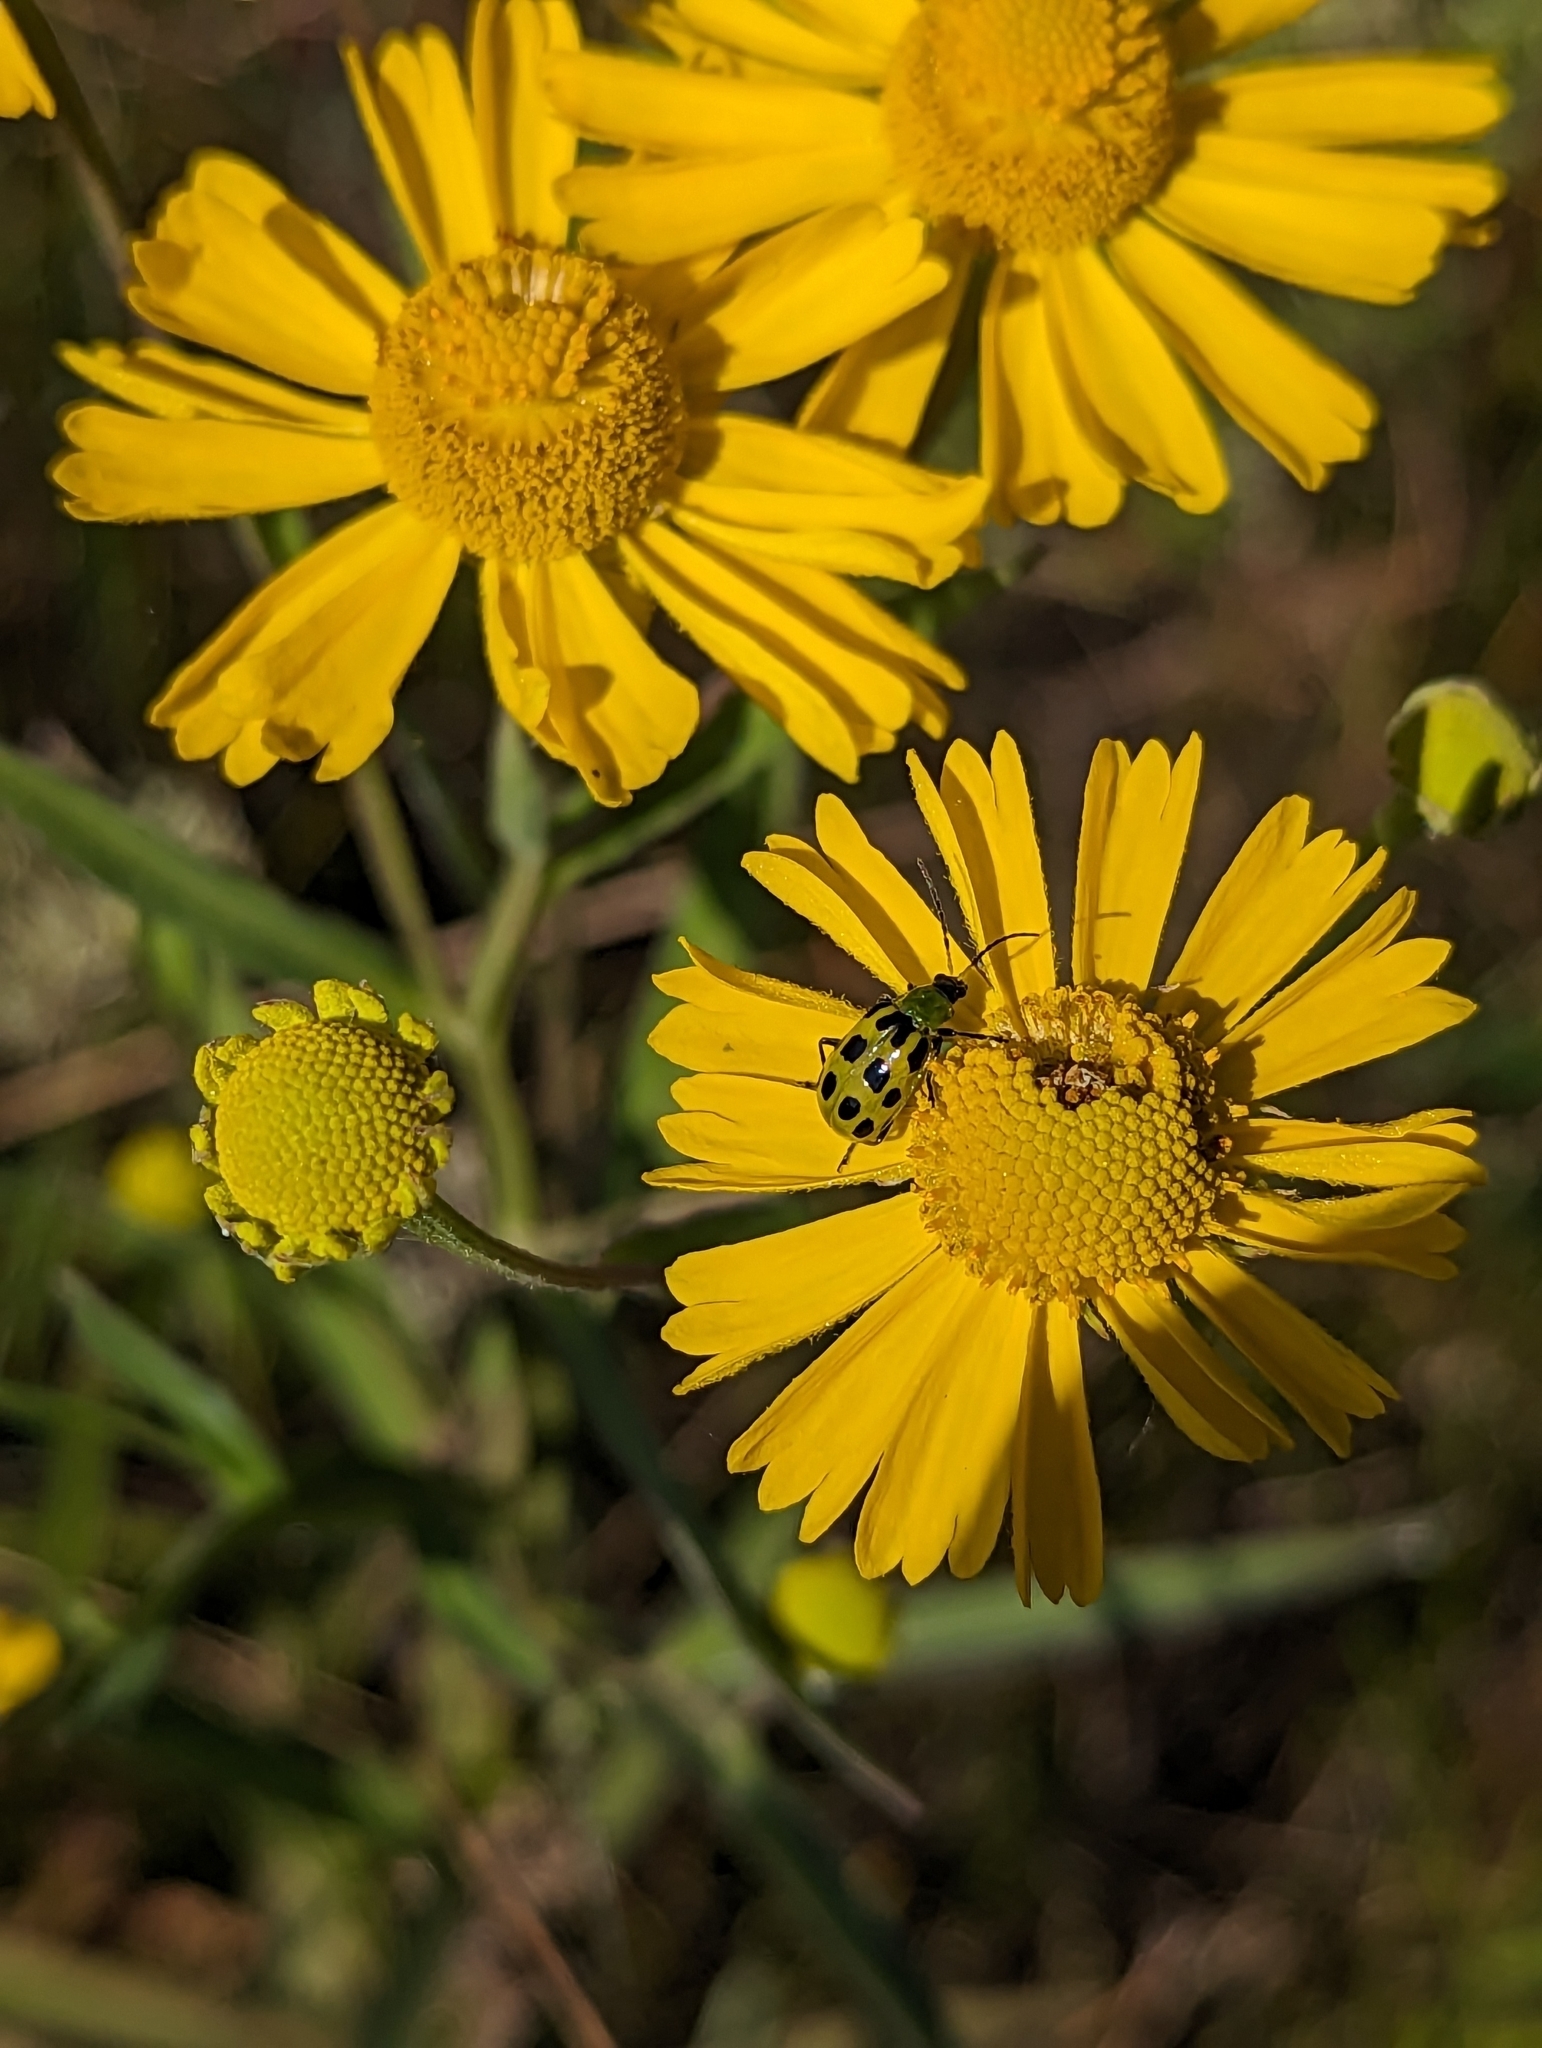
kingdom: Animalia
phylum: Arthropoda
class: Insecta
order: Coleoptera
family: Chrysomelidae
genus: Diabrotica
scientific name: Diabrotica undecimpunctata
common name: Spotted cucumber beetle
